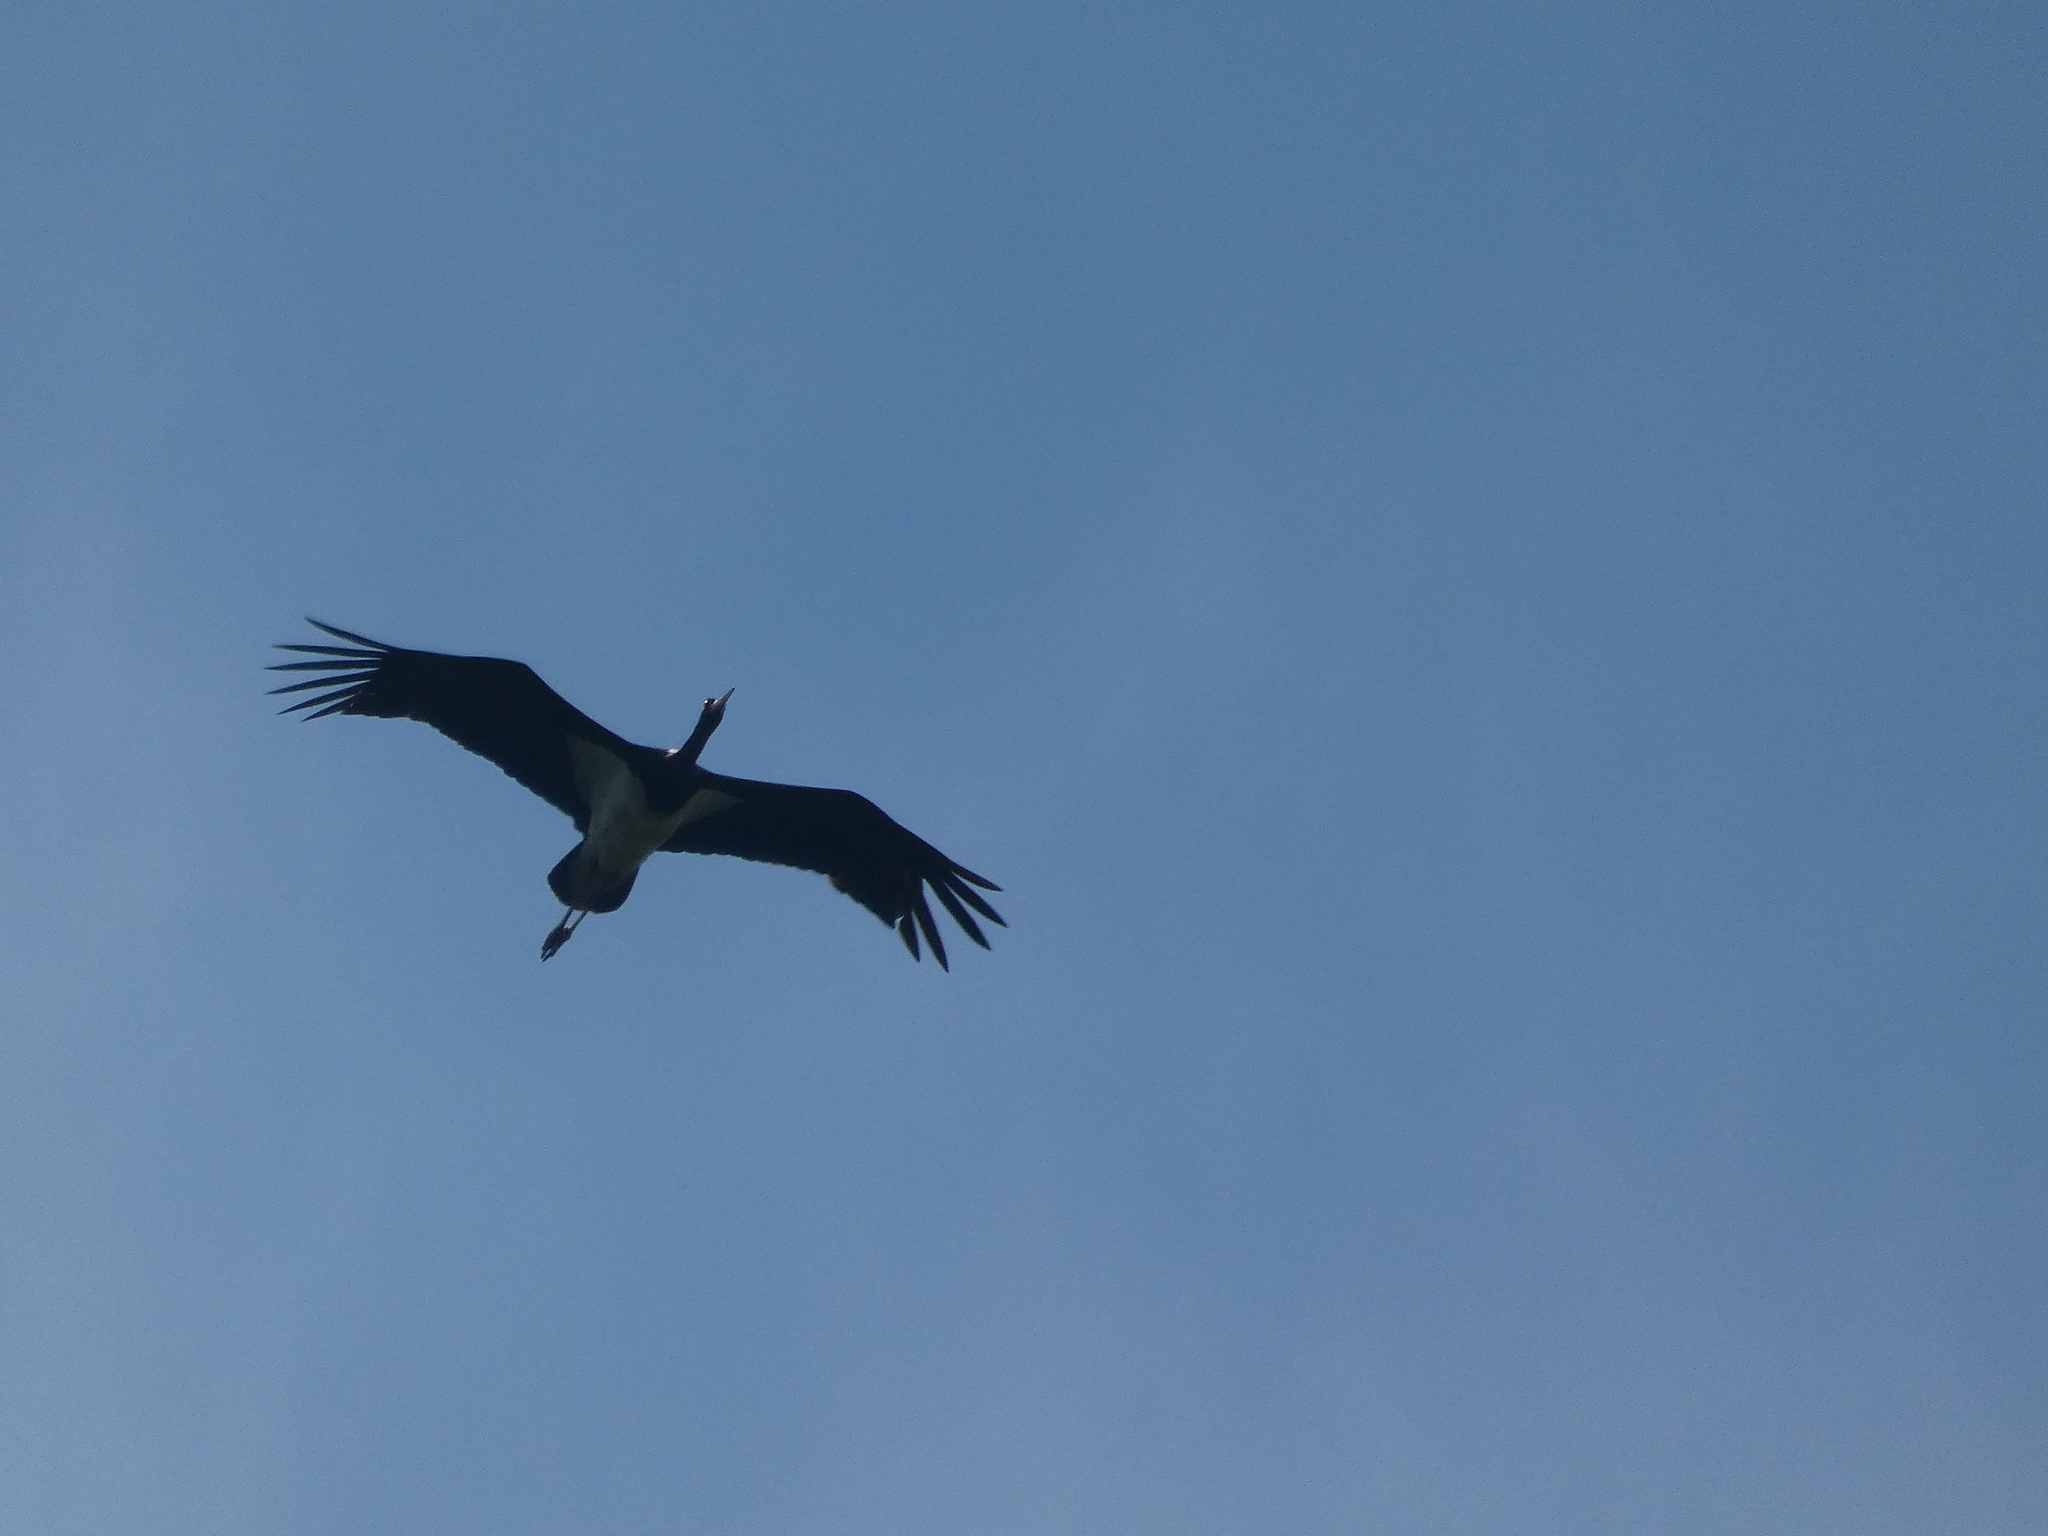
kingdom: Animalia
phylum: Chordata
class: Aves
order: Ciconiiformes
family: Ciconiidae
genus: Ciconia
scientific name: Ciconia nigra
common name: Black stork
